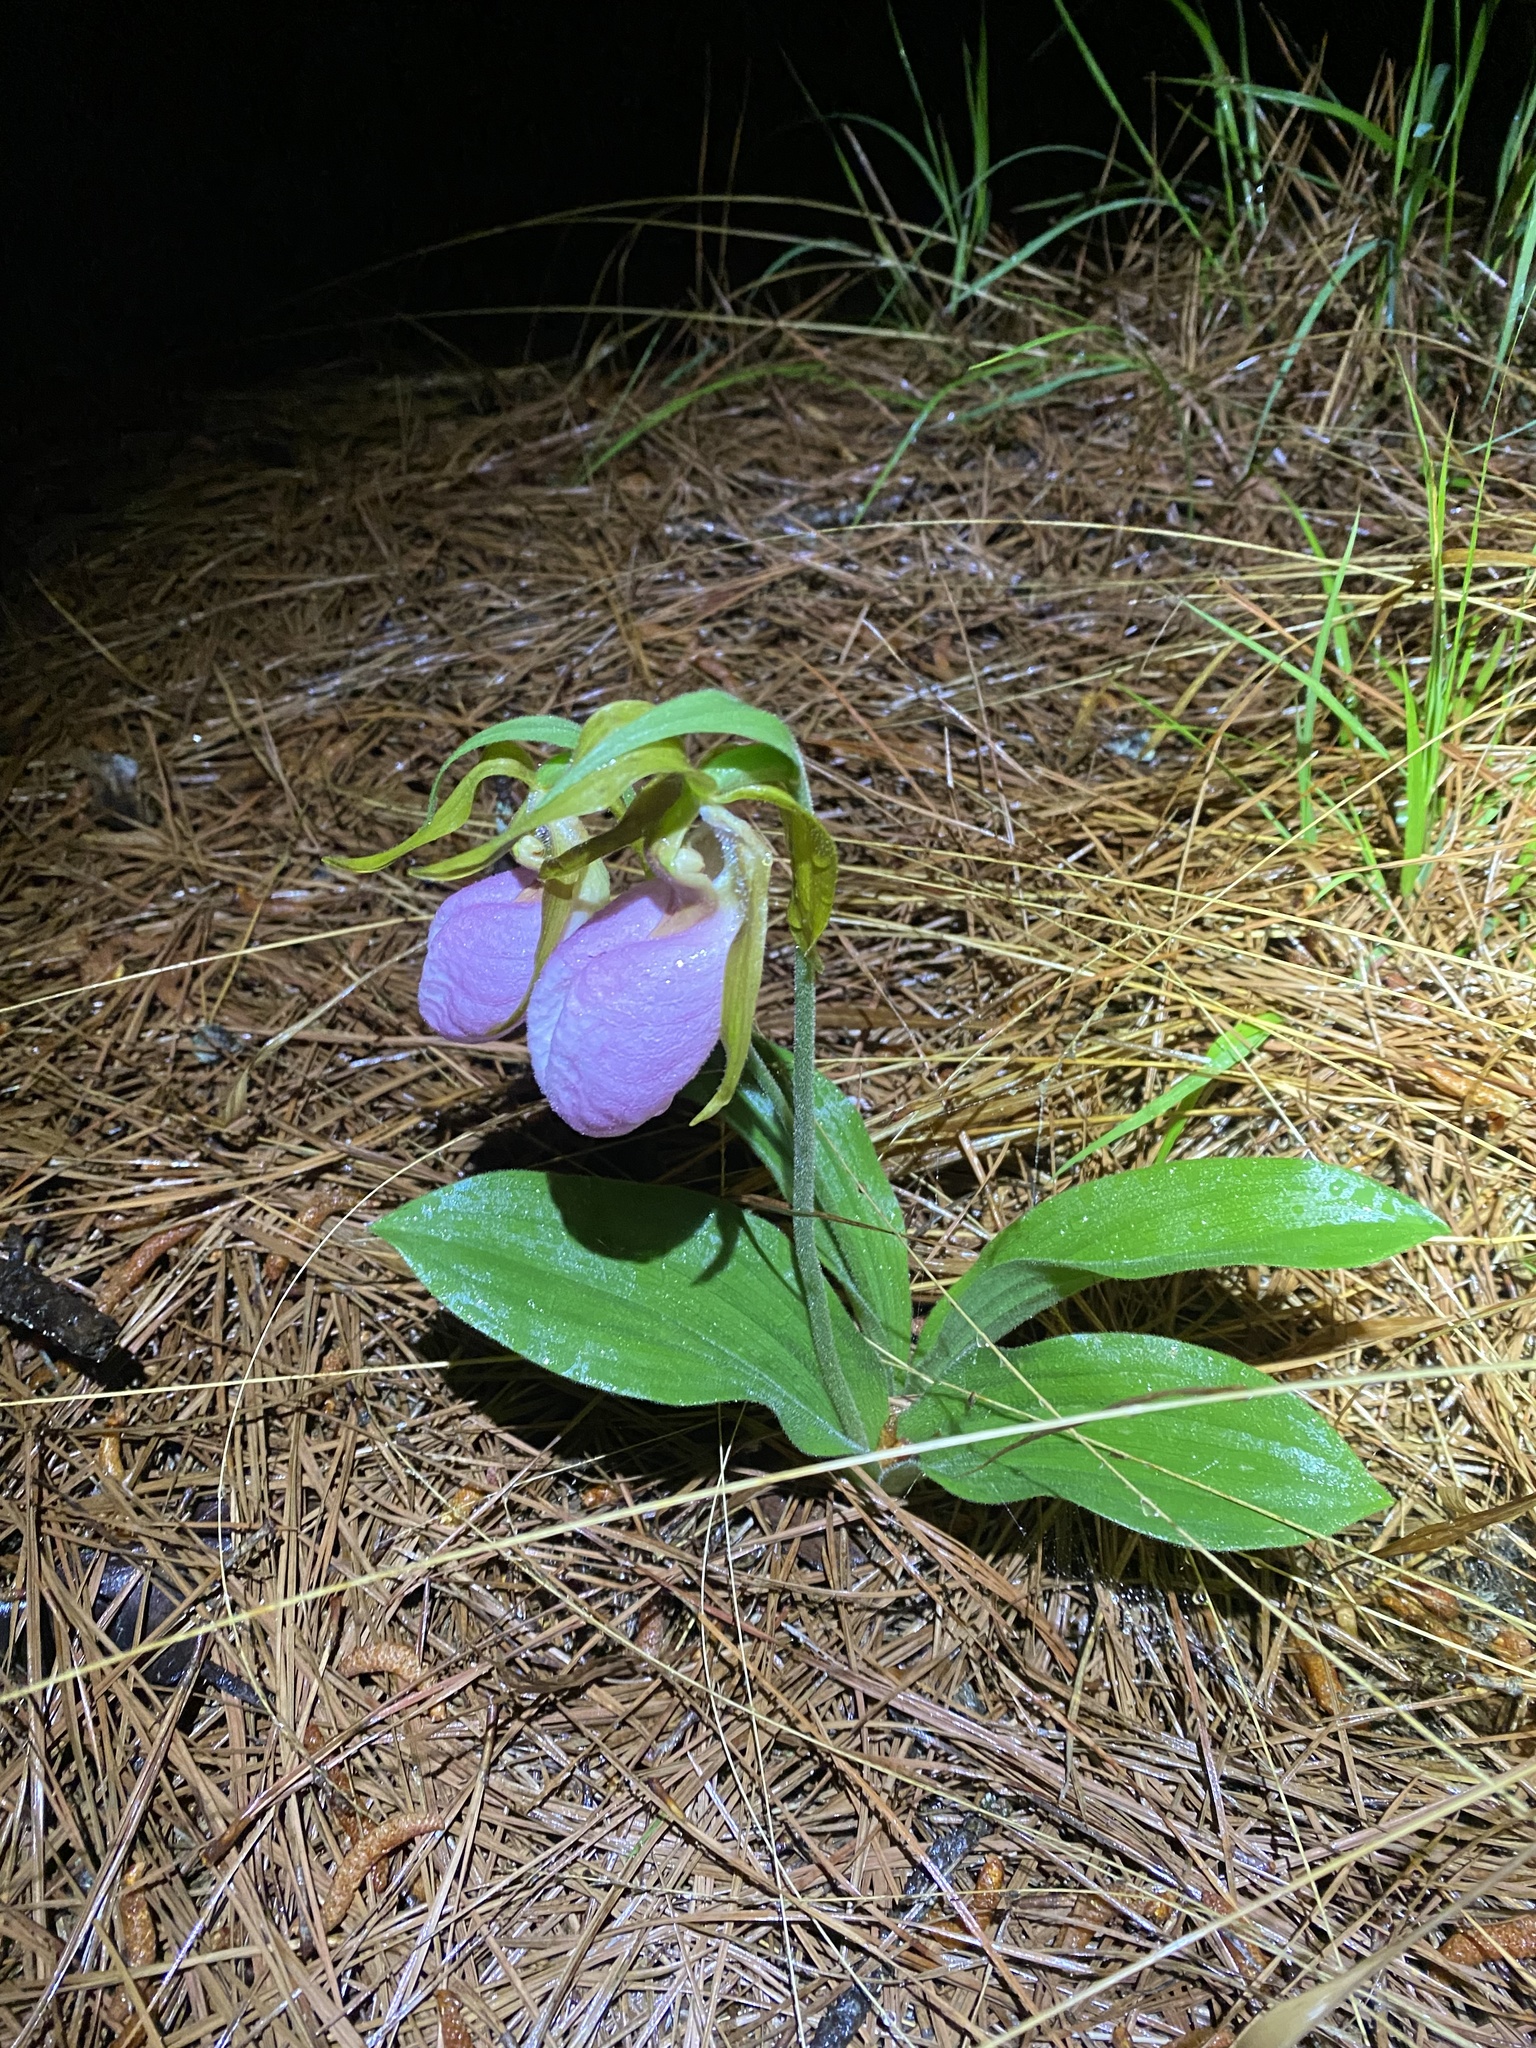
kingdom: Plantae
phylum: Tracheophyta
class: Liliopsida
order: Asparagales
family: Orchidaceae
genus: Cypripedium
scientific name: Cypripedium acaule
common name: Pink lady's-slipper
